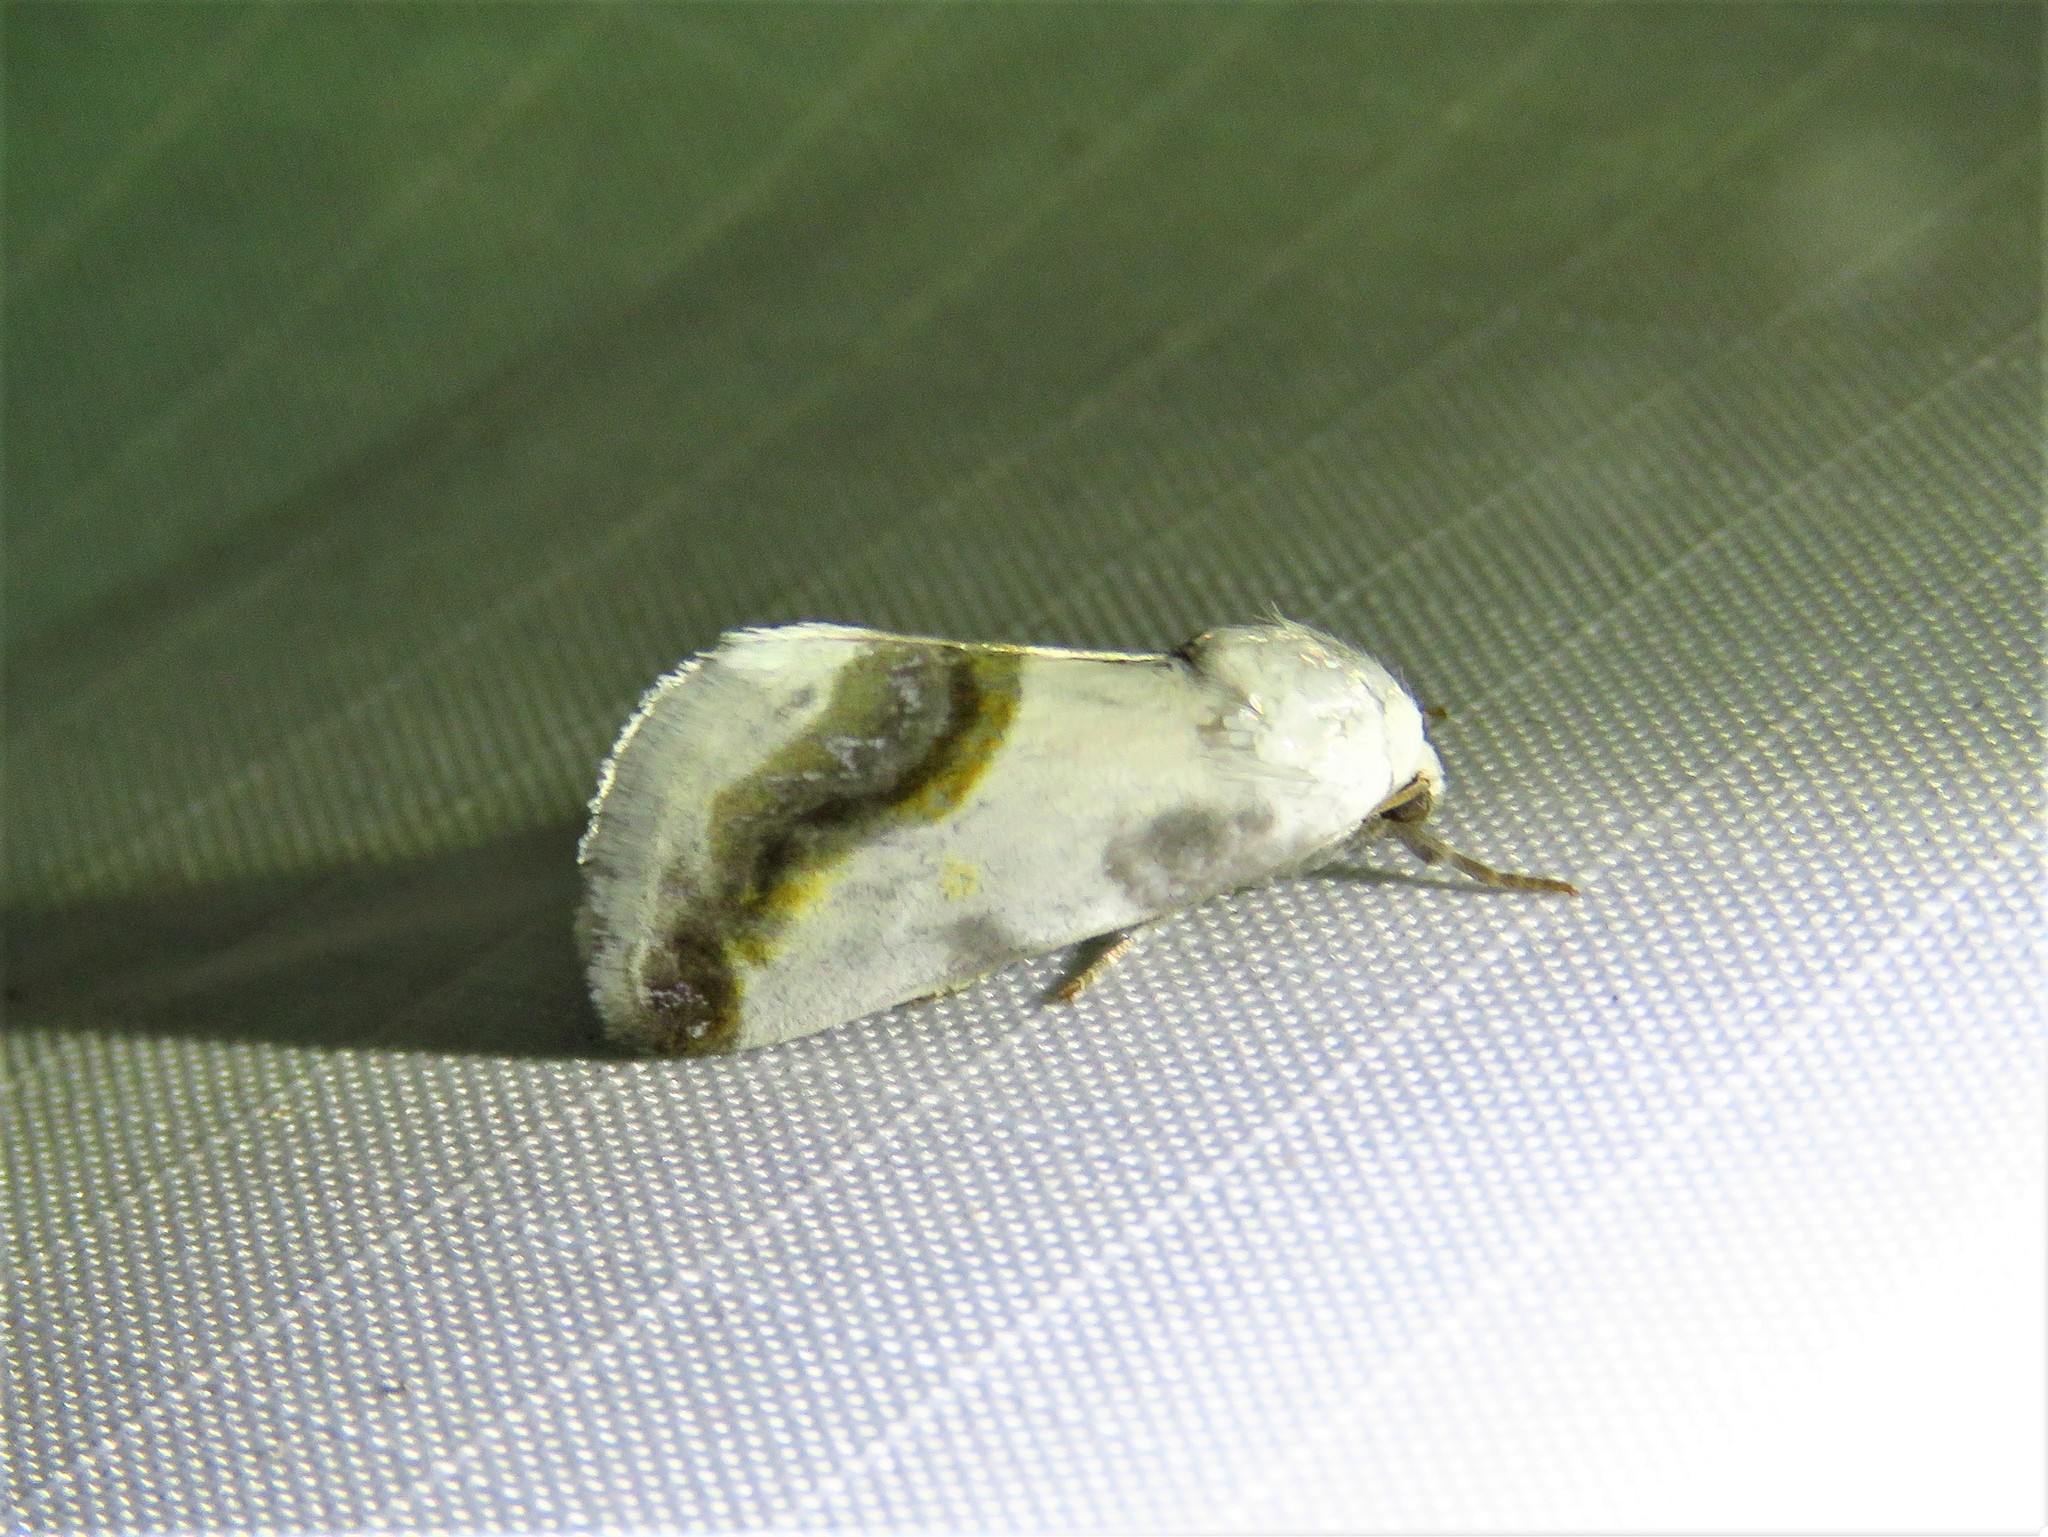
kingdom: Animalia
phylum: Arthropoda
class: Insecta
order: Lepidoptera
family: Noctuidae
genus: Acontia
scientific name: Acontia cretata
